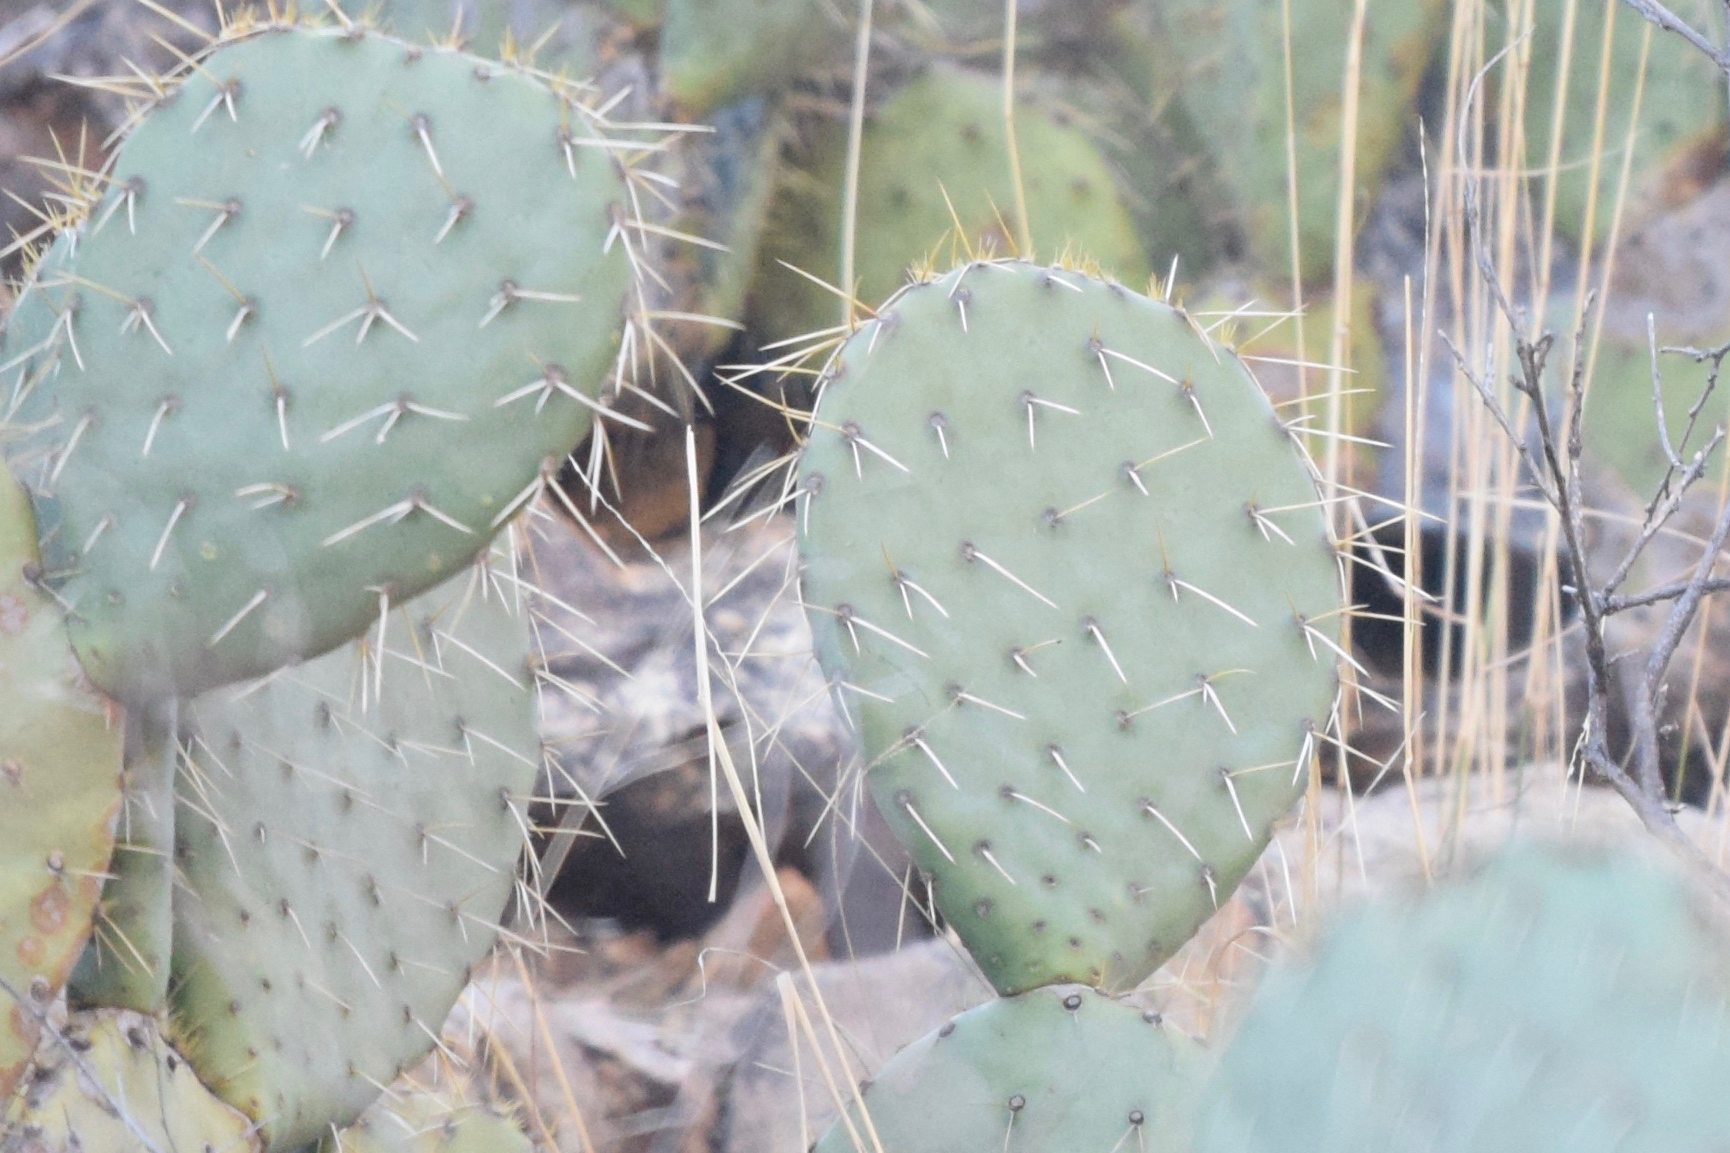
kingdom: Plantae
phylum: Tracheophyta
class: Magnoliopsida
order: Caryophyllales
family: Cactaceae
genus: Opuntia
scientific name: Opuntia engelmannii
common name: Cactus-apple
